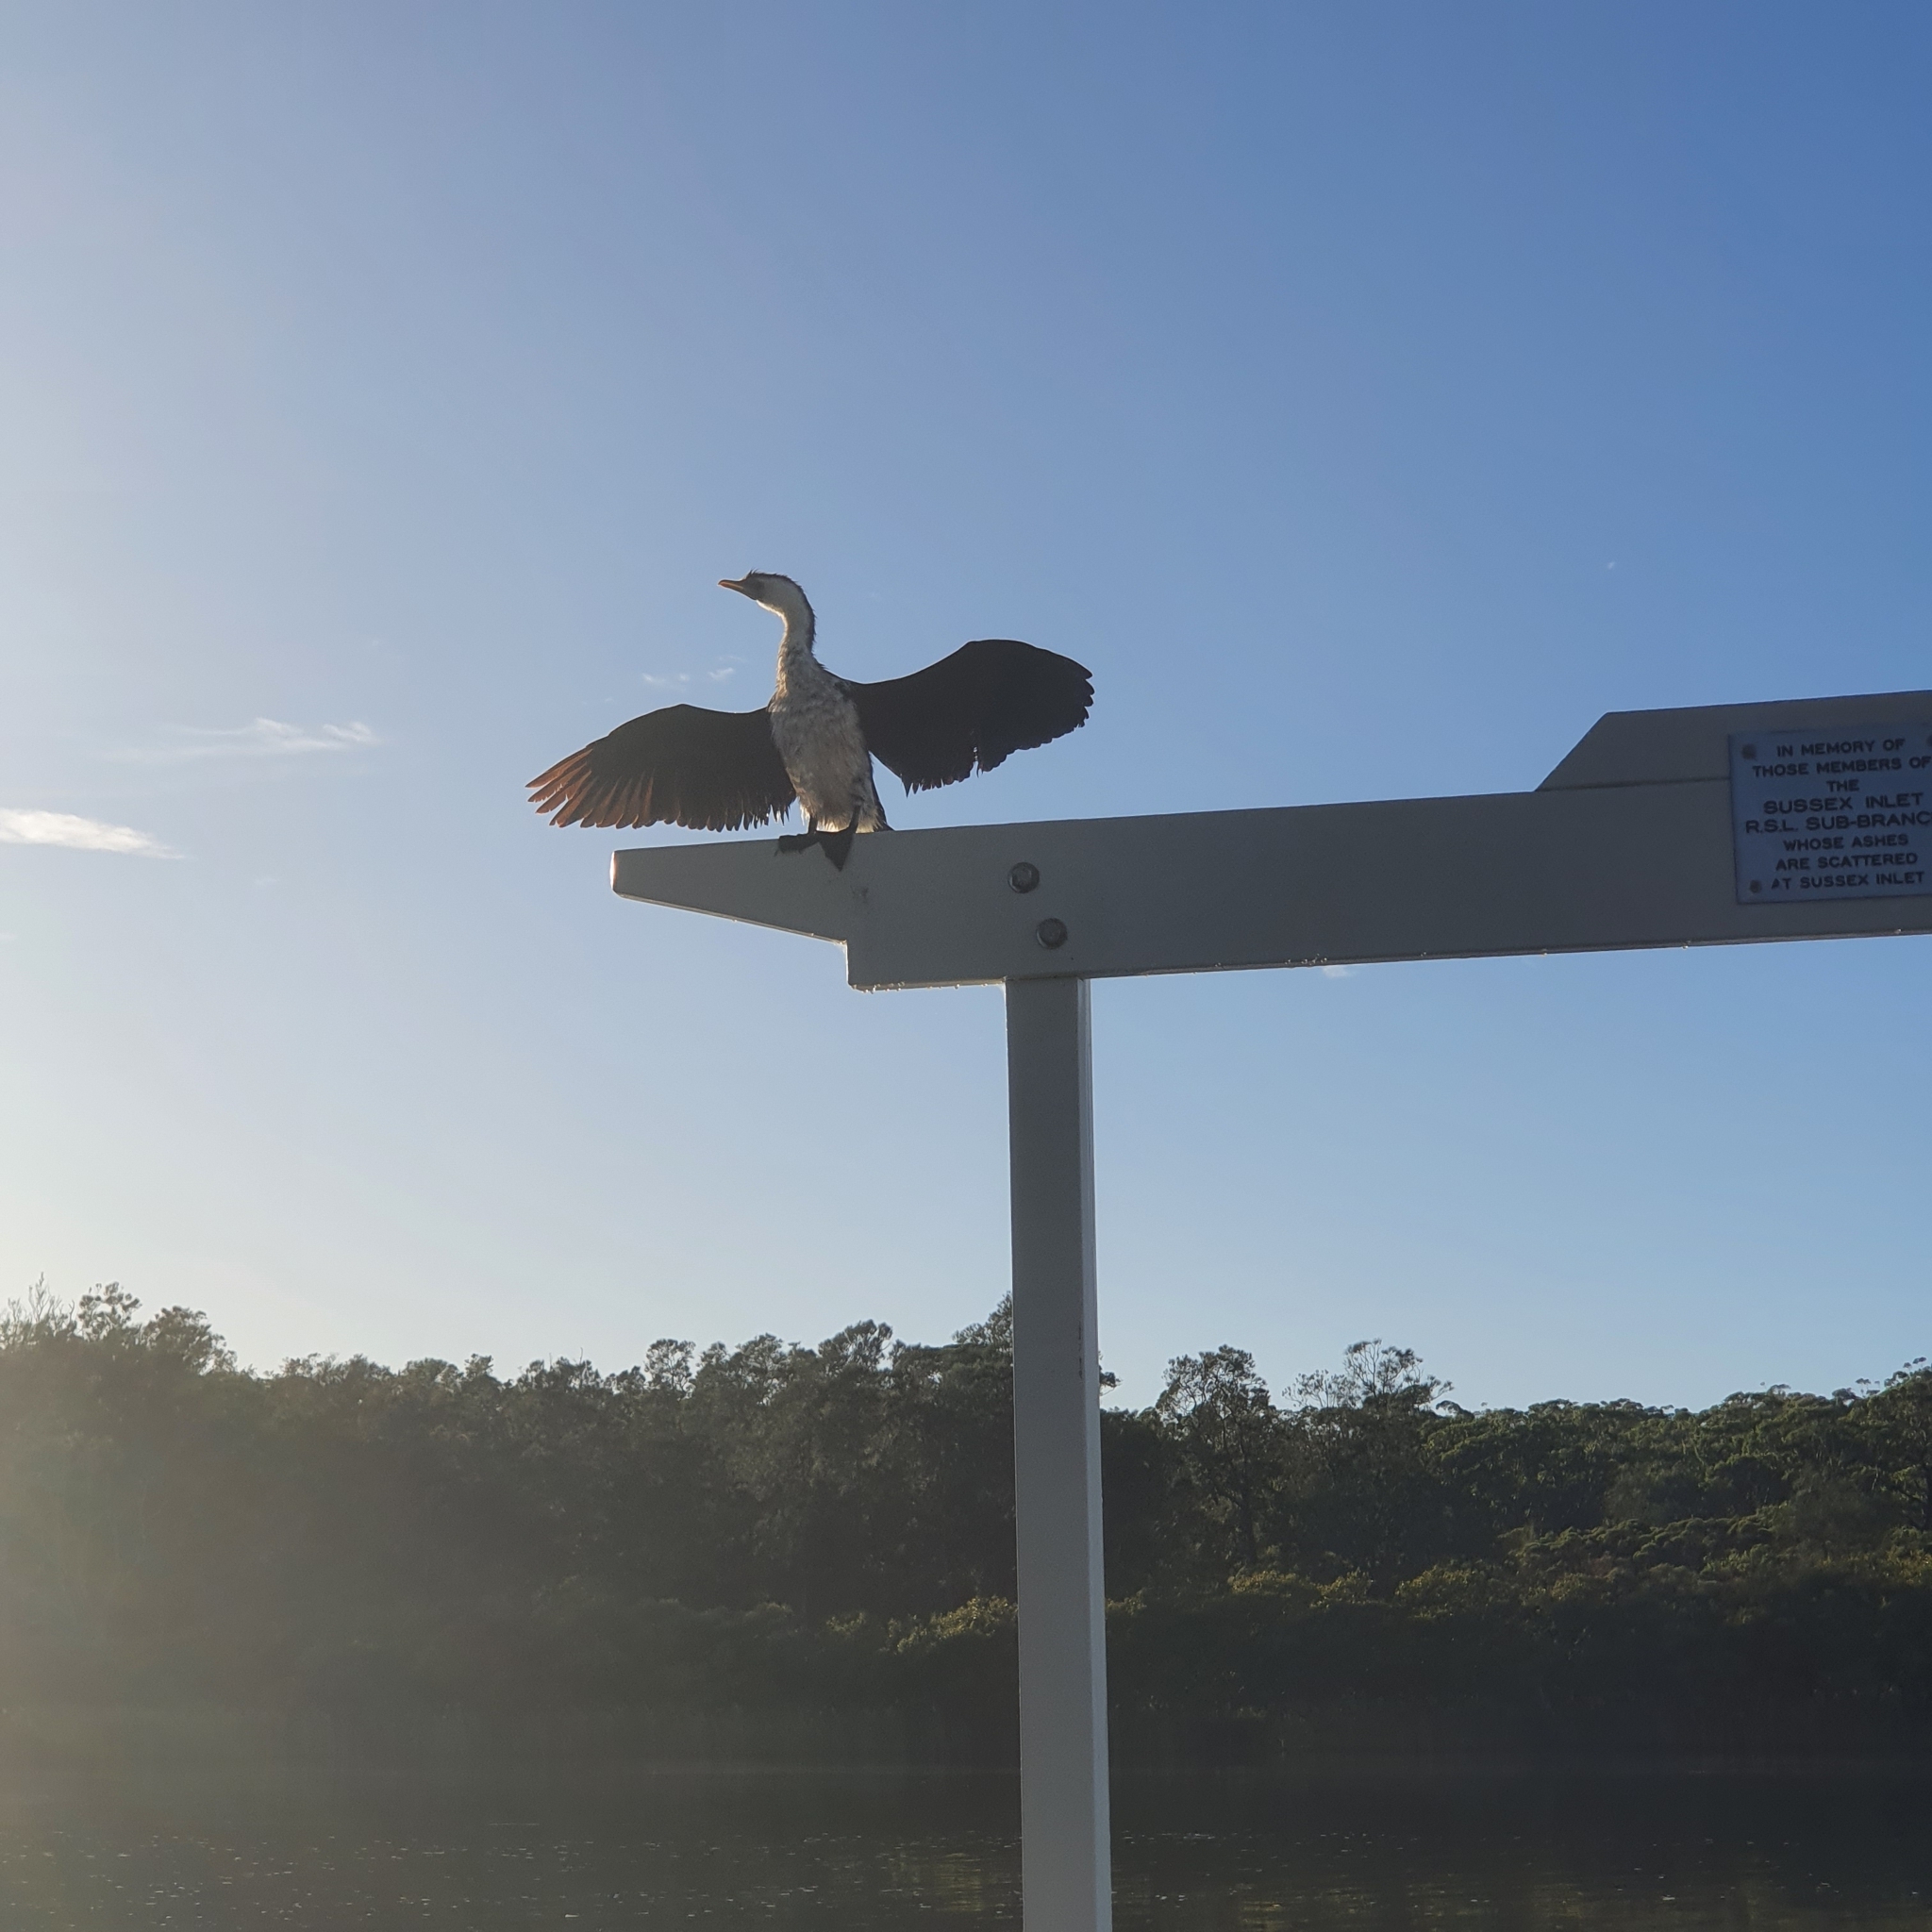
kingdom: Animalia
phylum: Chordata
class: Aves
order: Suliformes
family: Phalacrocoracidae
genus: Microcarbo
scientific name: Microcarbo melanoleucos
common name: Little pied cormorant
